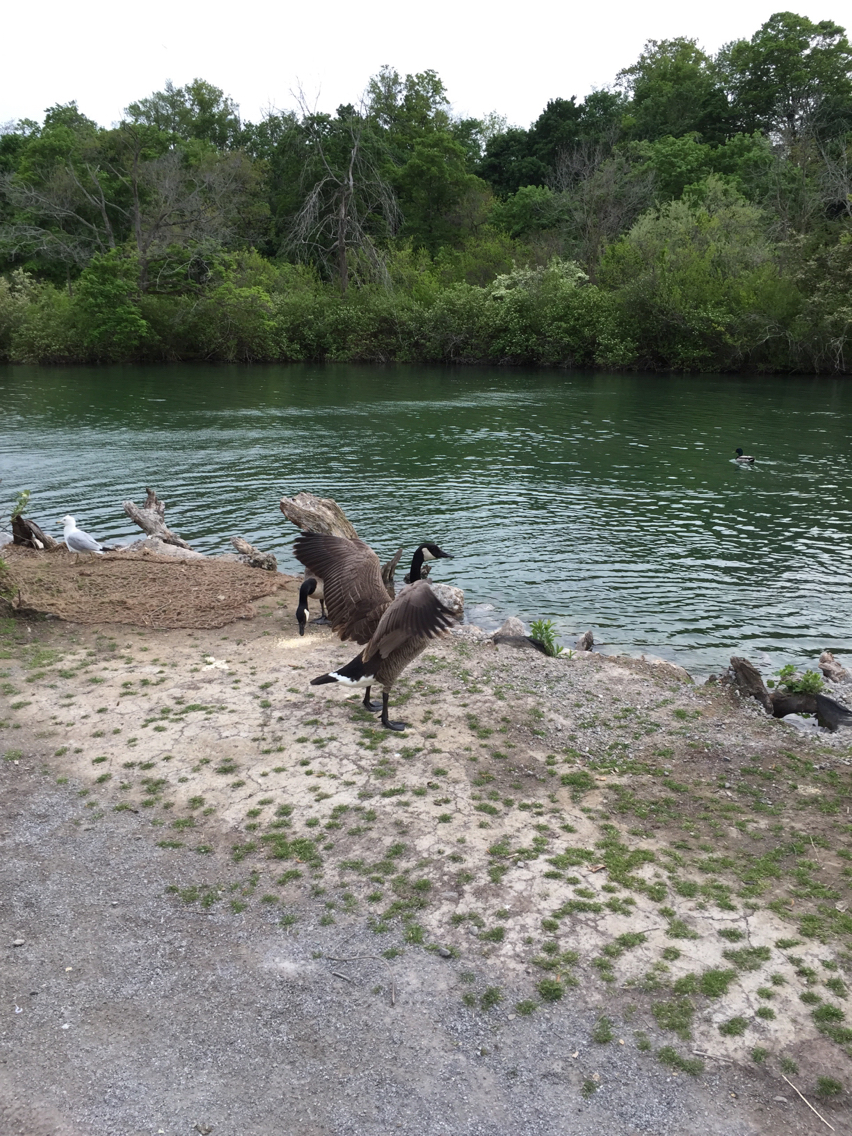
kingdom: Animalia
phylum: Chordata
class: Aves
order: Anseriformes
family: Anatidae
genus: Branta
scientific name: Branta canadensis
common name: Canada goose
